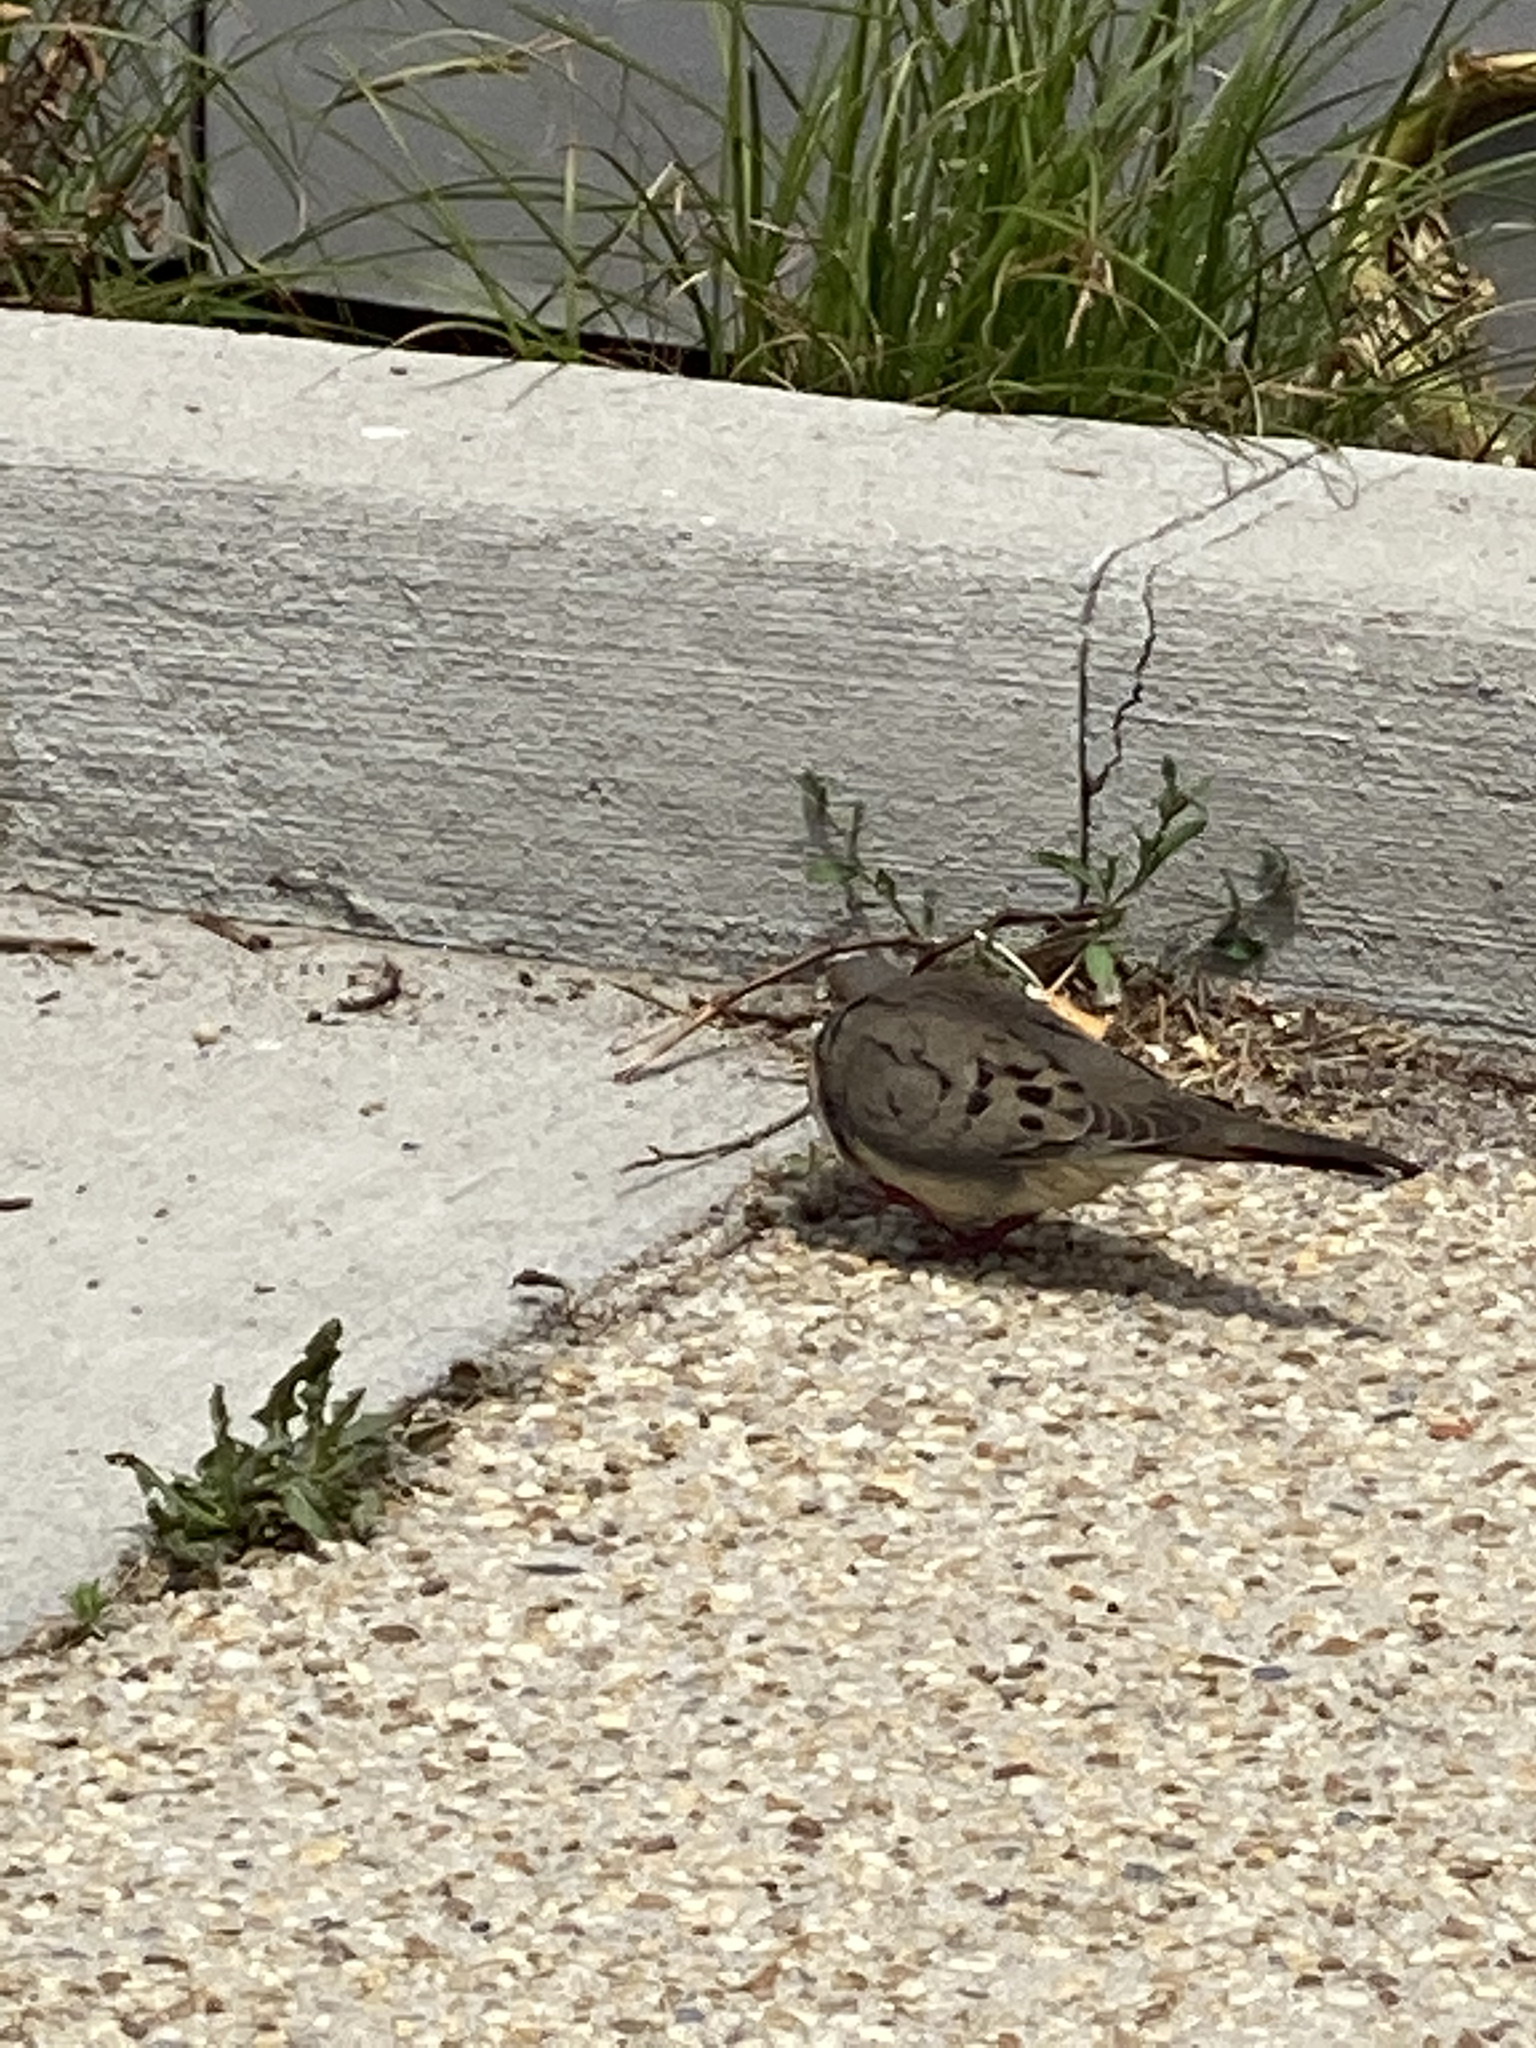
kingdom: Animalia
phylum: Chordata
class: Aves
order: Columbiformes
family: Columbidae
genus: Zenaida
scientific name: Zenaida macroura
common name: Mourning dove
